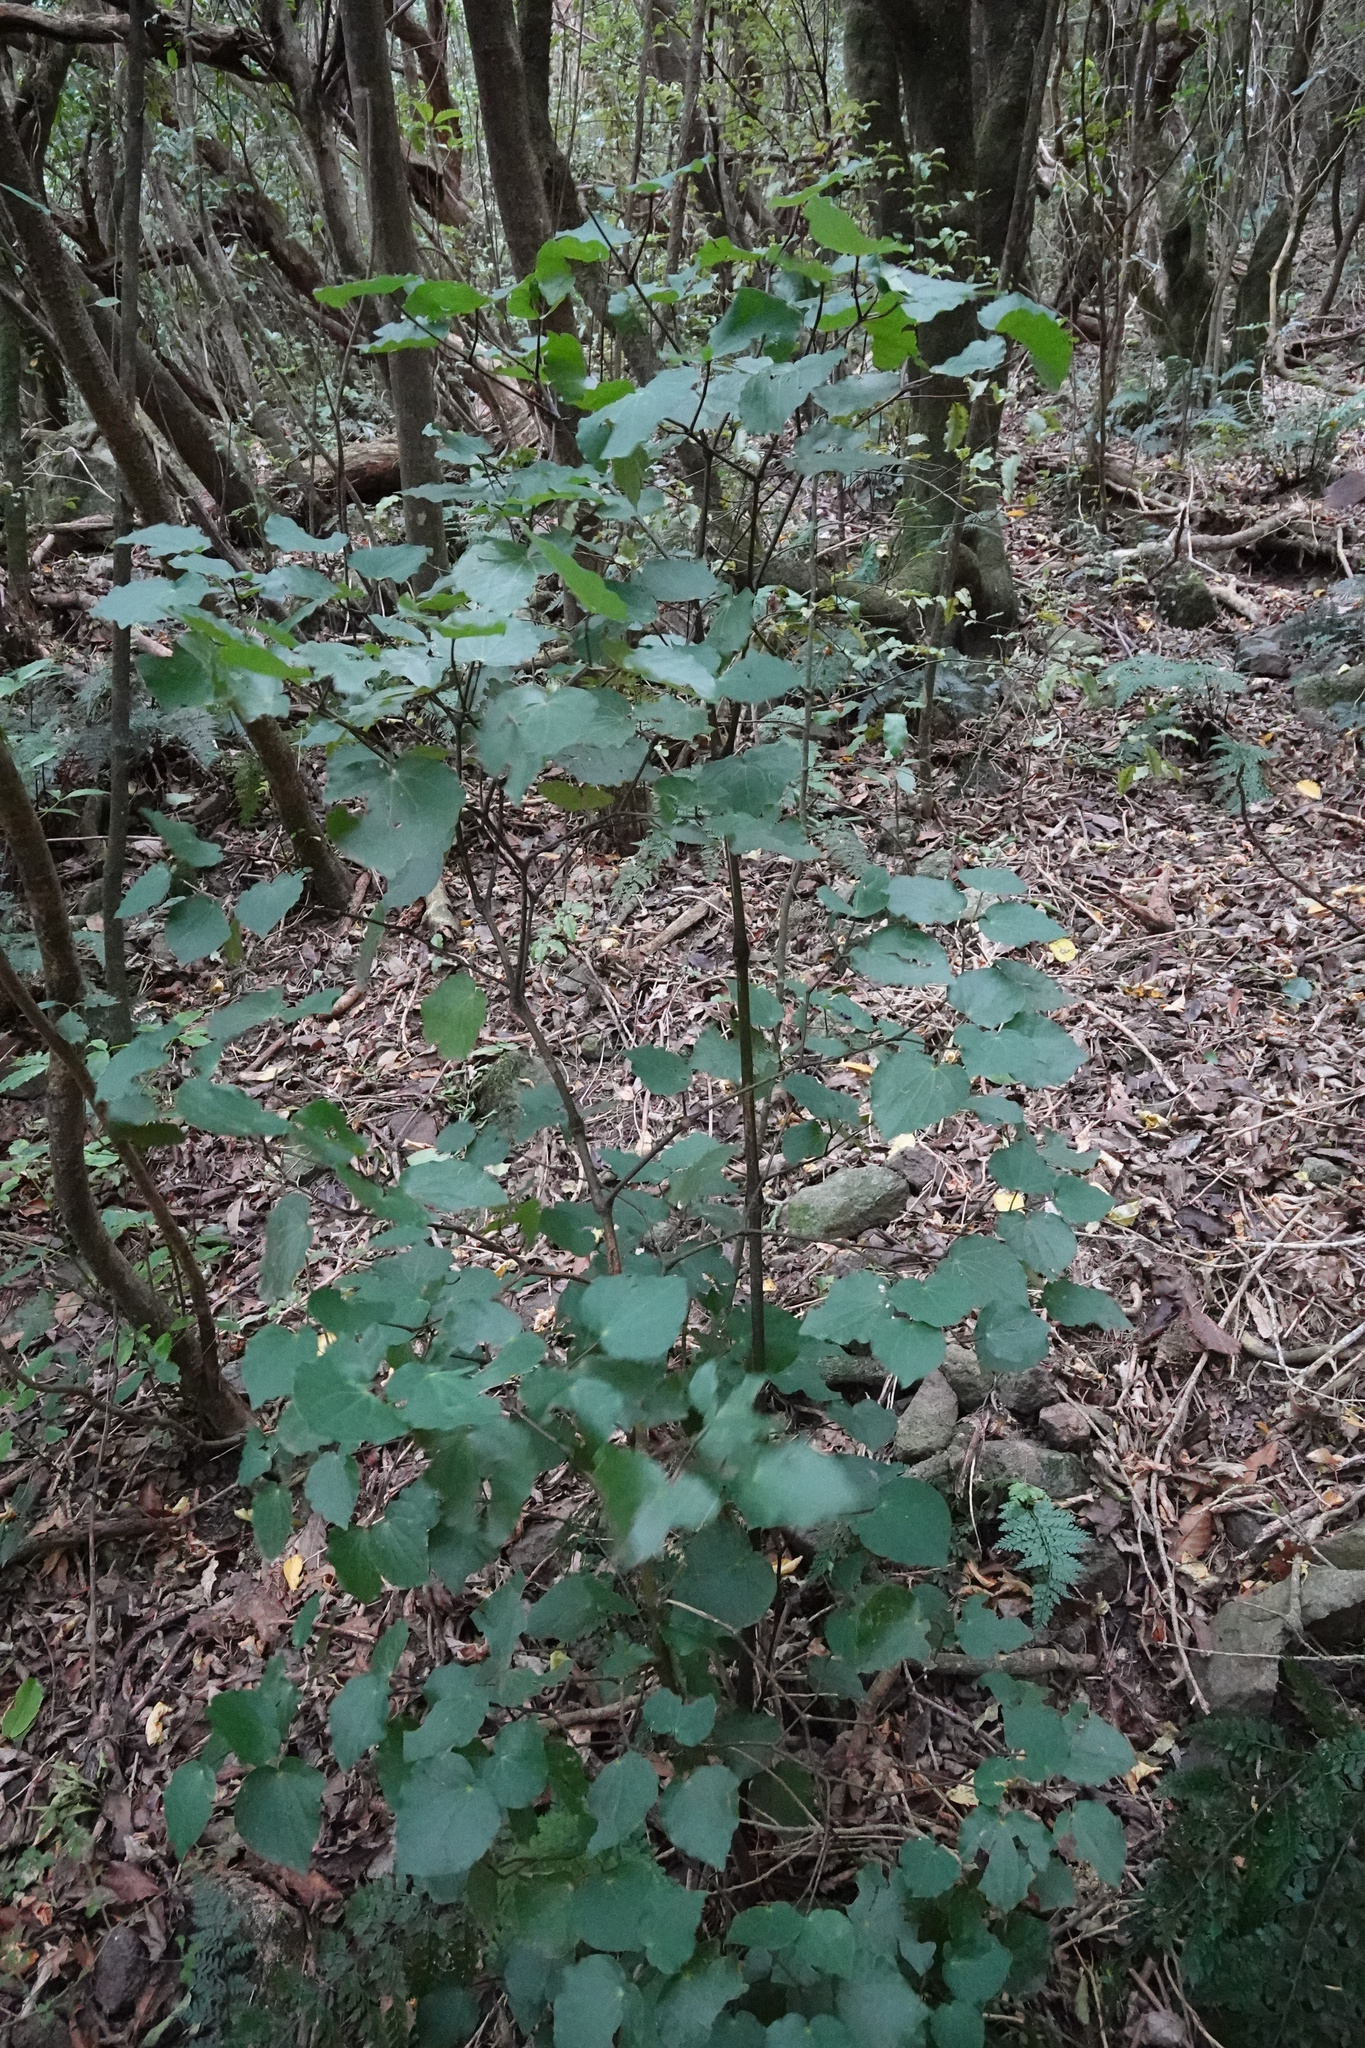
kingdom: Plantae
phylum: Tracheophyta
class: Magnoliopsida
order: Piperales
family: Piperaceae
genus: Macropiper
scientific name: Macropiper excelsum
